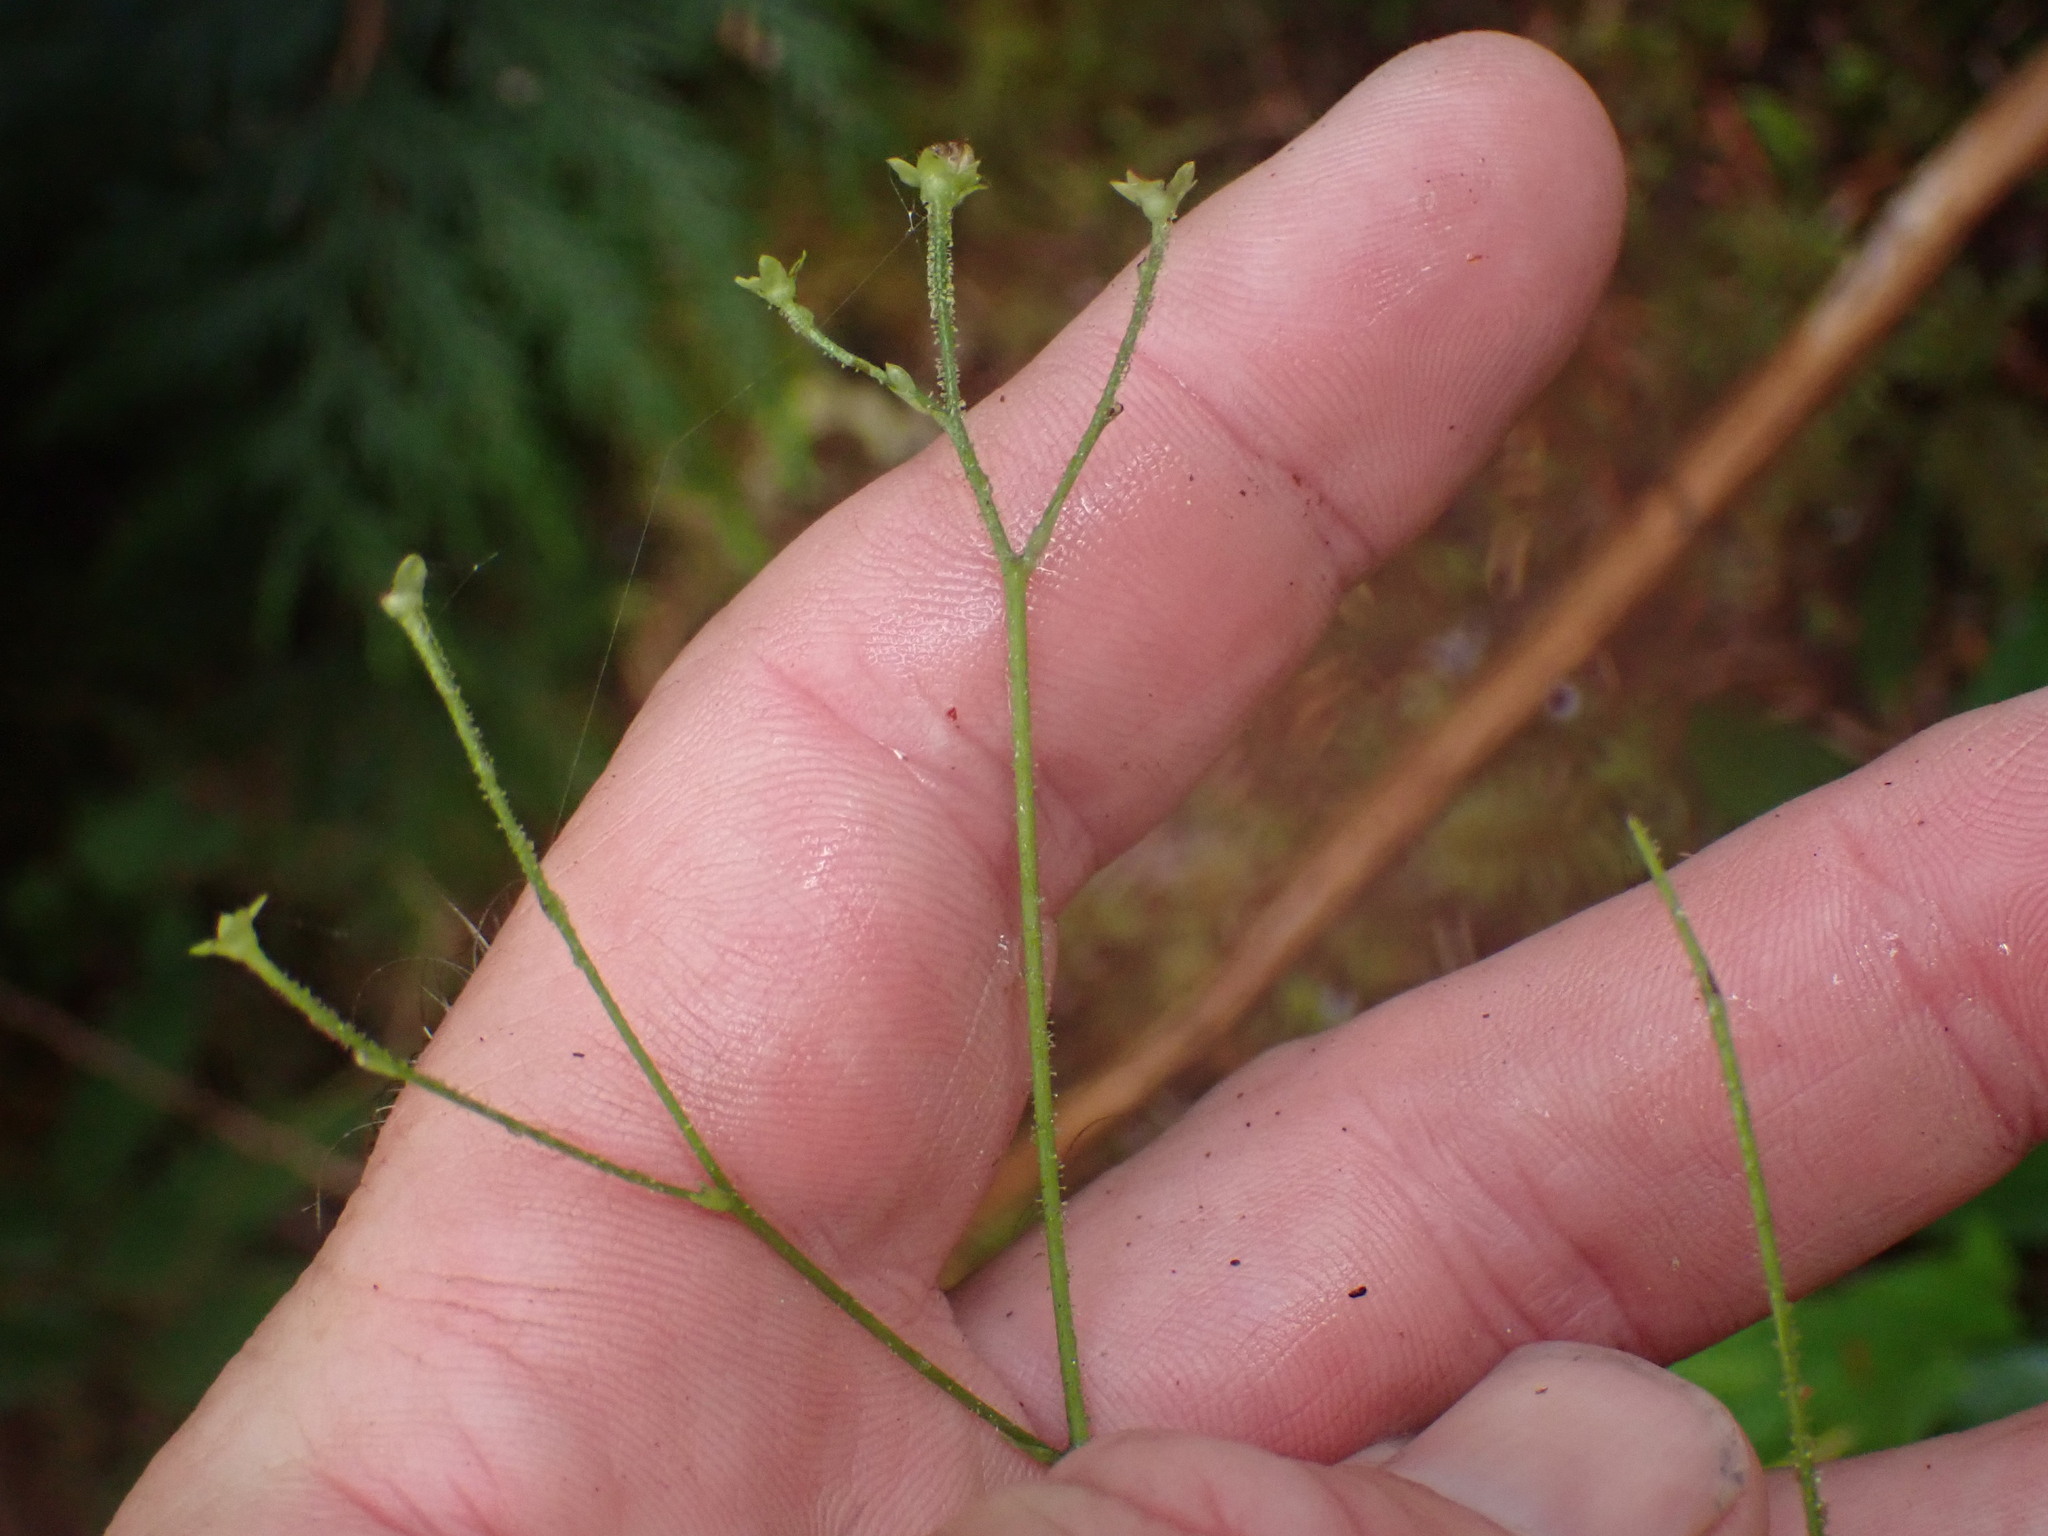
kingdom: Plantae
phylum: Tracheophyta
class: Magnoliopsida
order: Asterales
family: Asteraceae
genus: Adenocaulon
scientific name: Adenocaulon bicolor
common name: Trailplant
